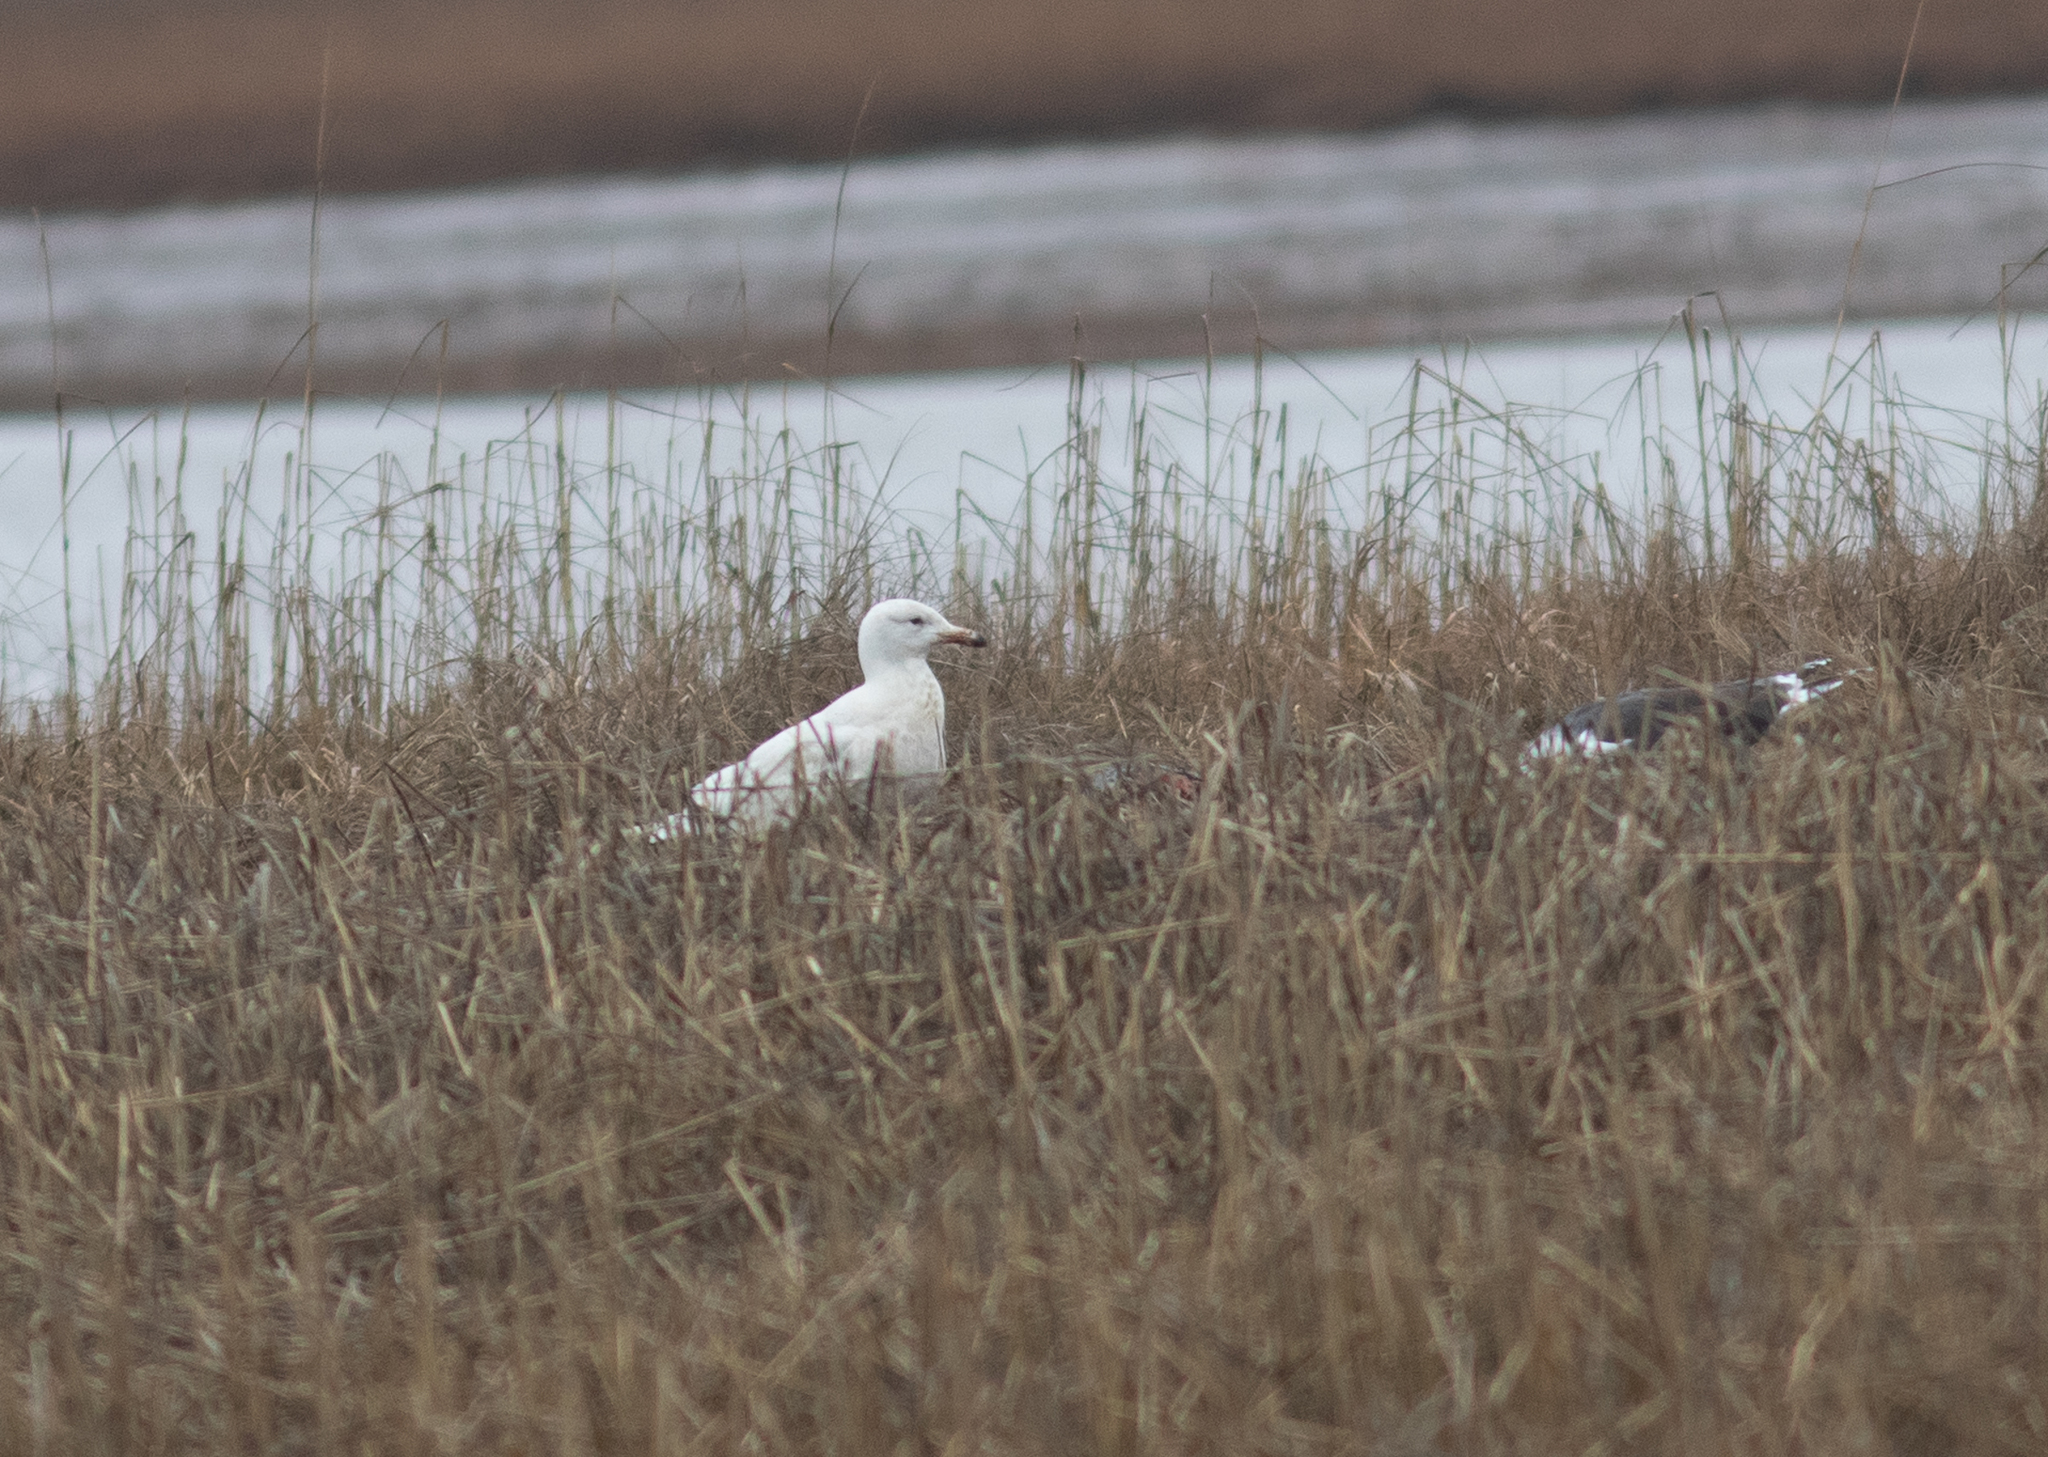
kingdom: Animalia
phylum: Chordata
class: Aves
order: Charadriiformes
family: Laridae
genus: Larus
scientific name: Larus hyperboreus
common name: Glaucous gull
